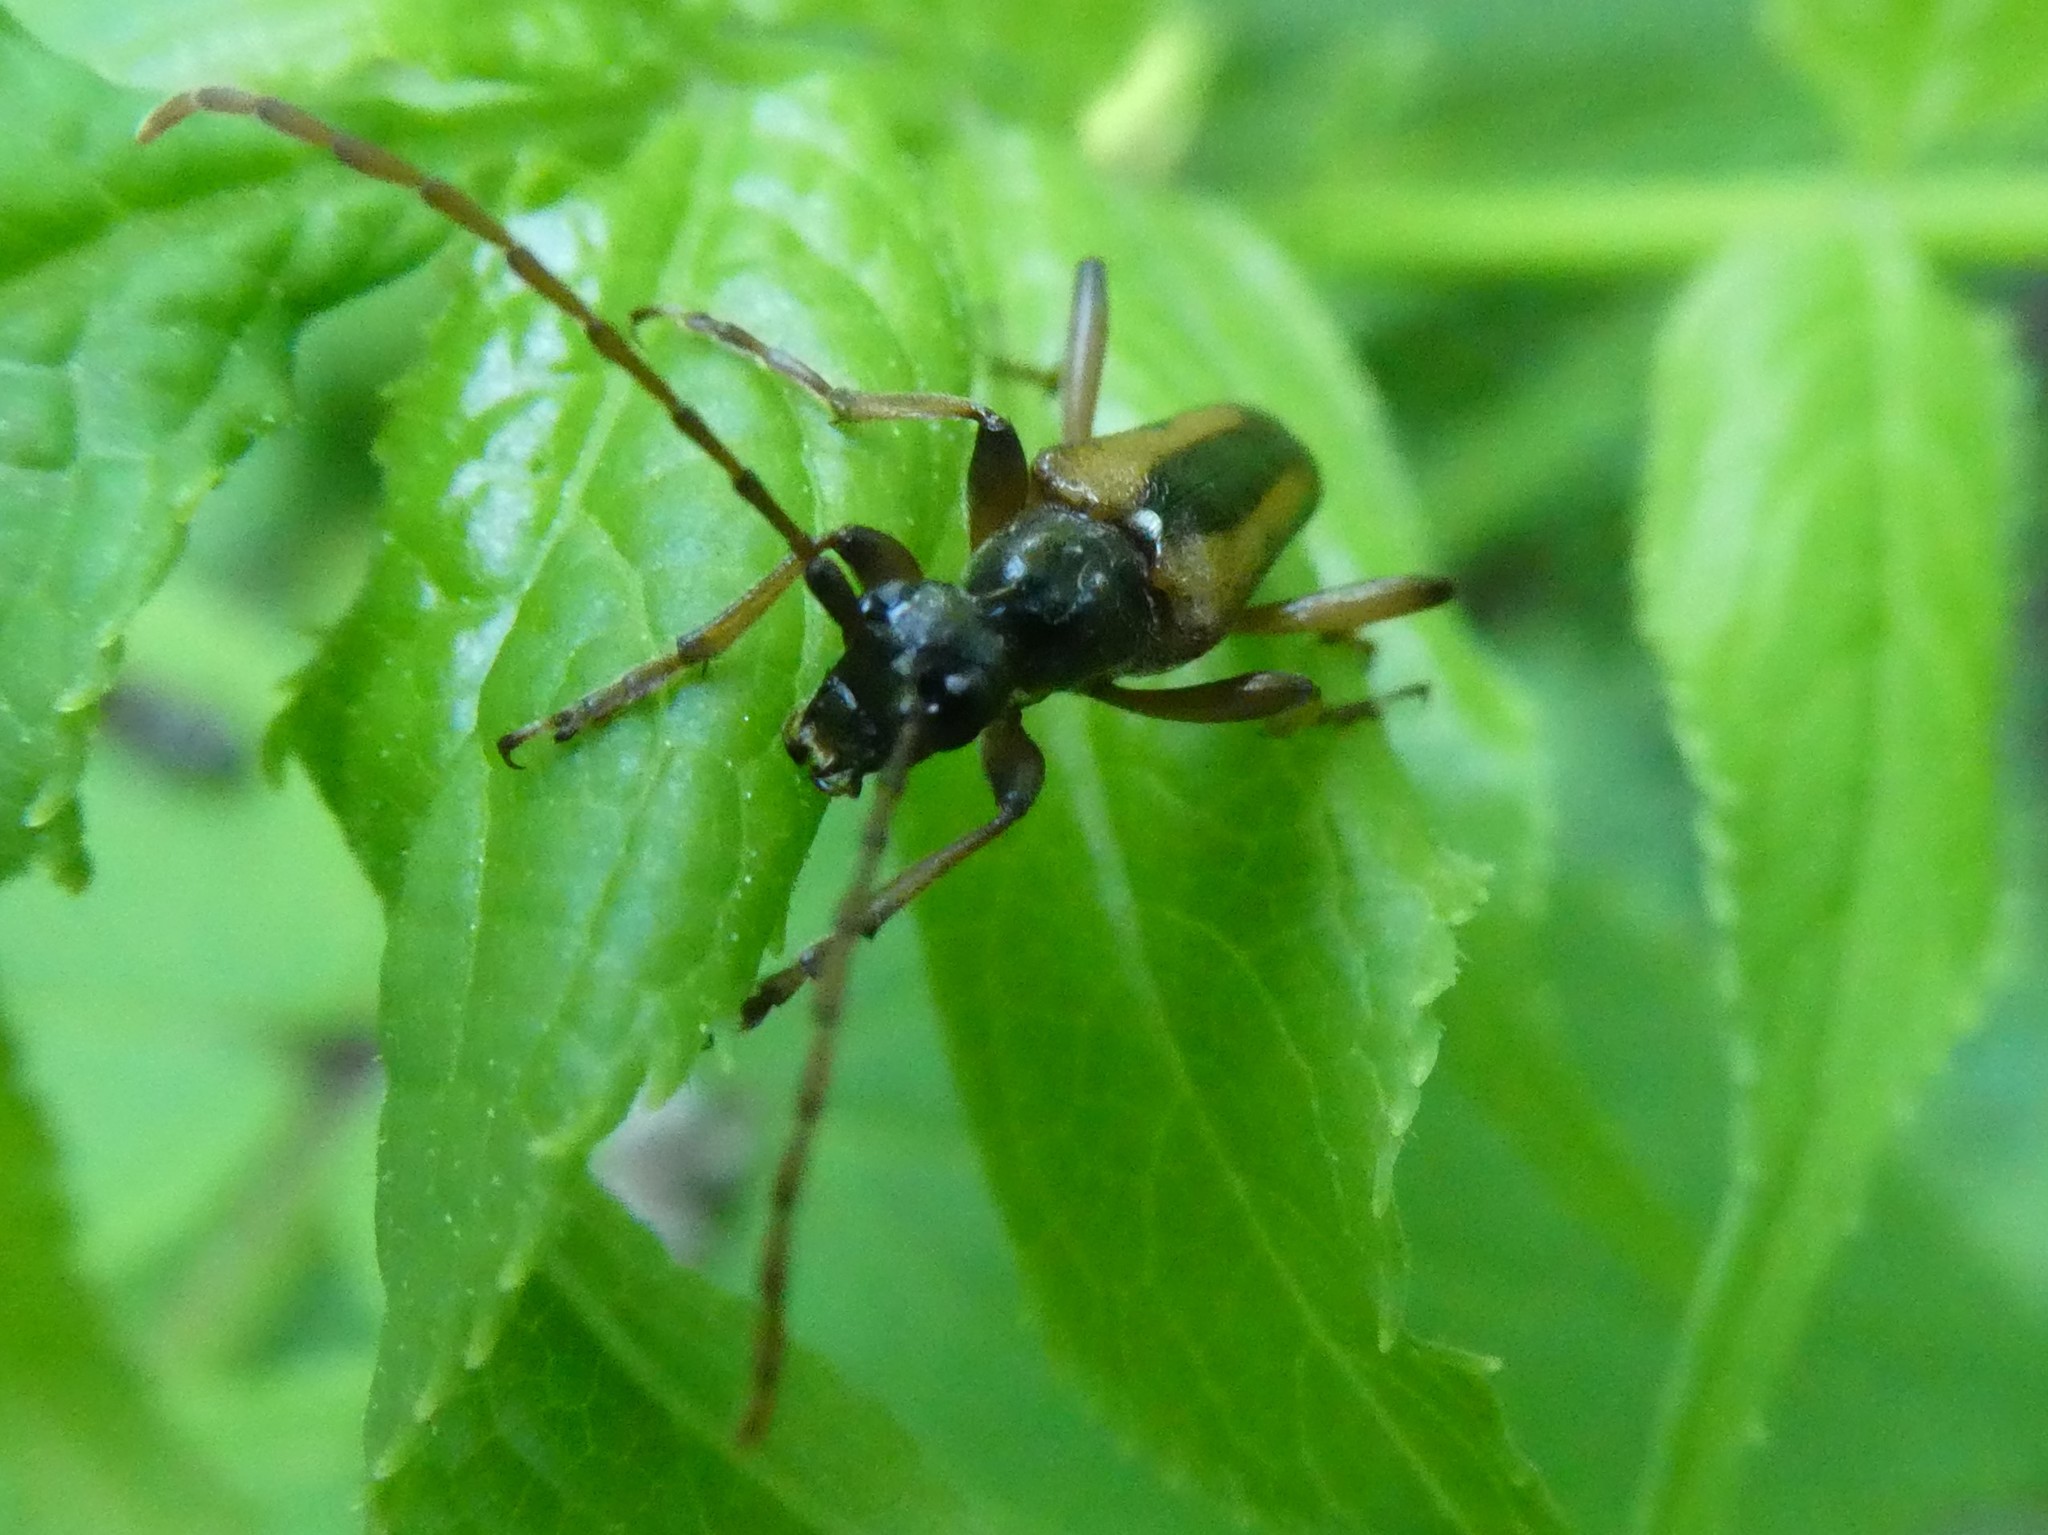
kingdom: Animalia
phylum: Arthropoda
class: Insecta
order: Coleoptera
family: Cerambycidae
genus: Strangalepta
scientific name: Strangalepta abbreviata
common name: Strangalepta flower longhorn beetle
